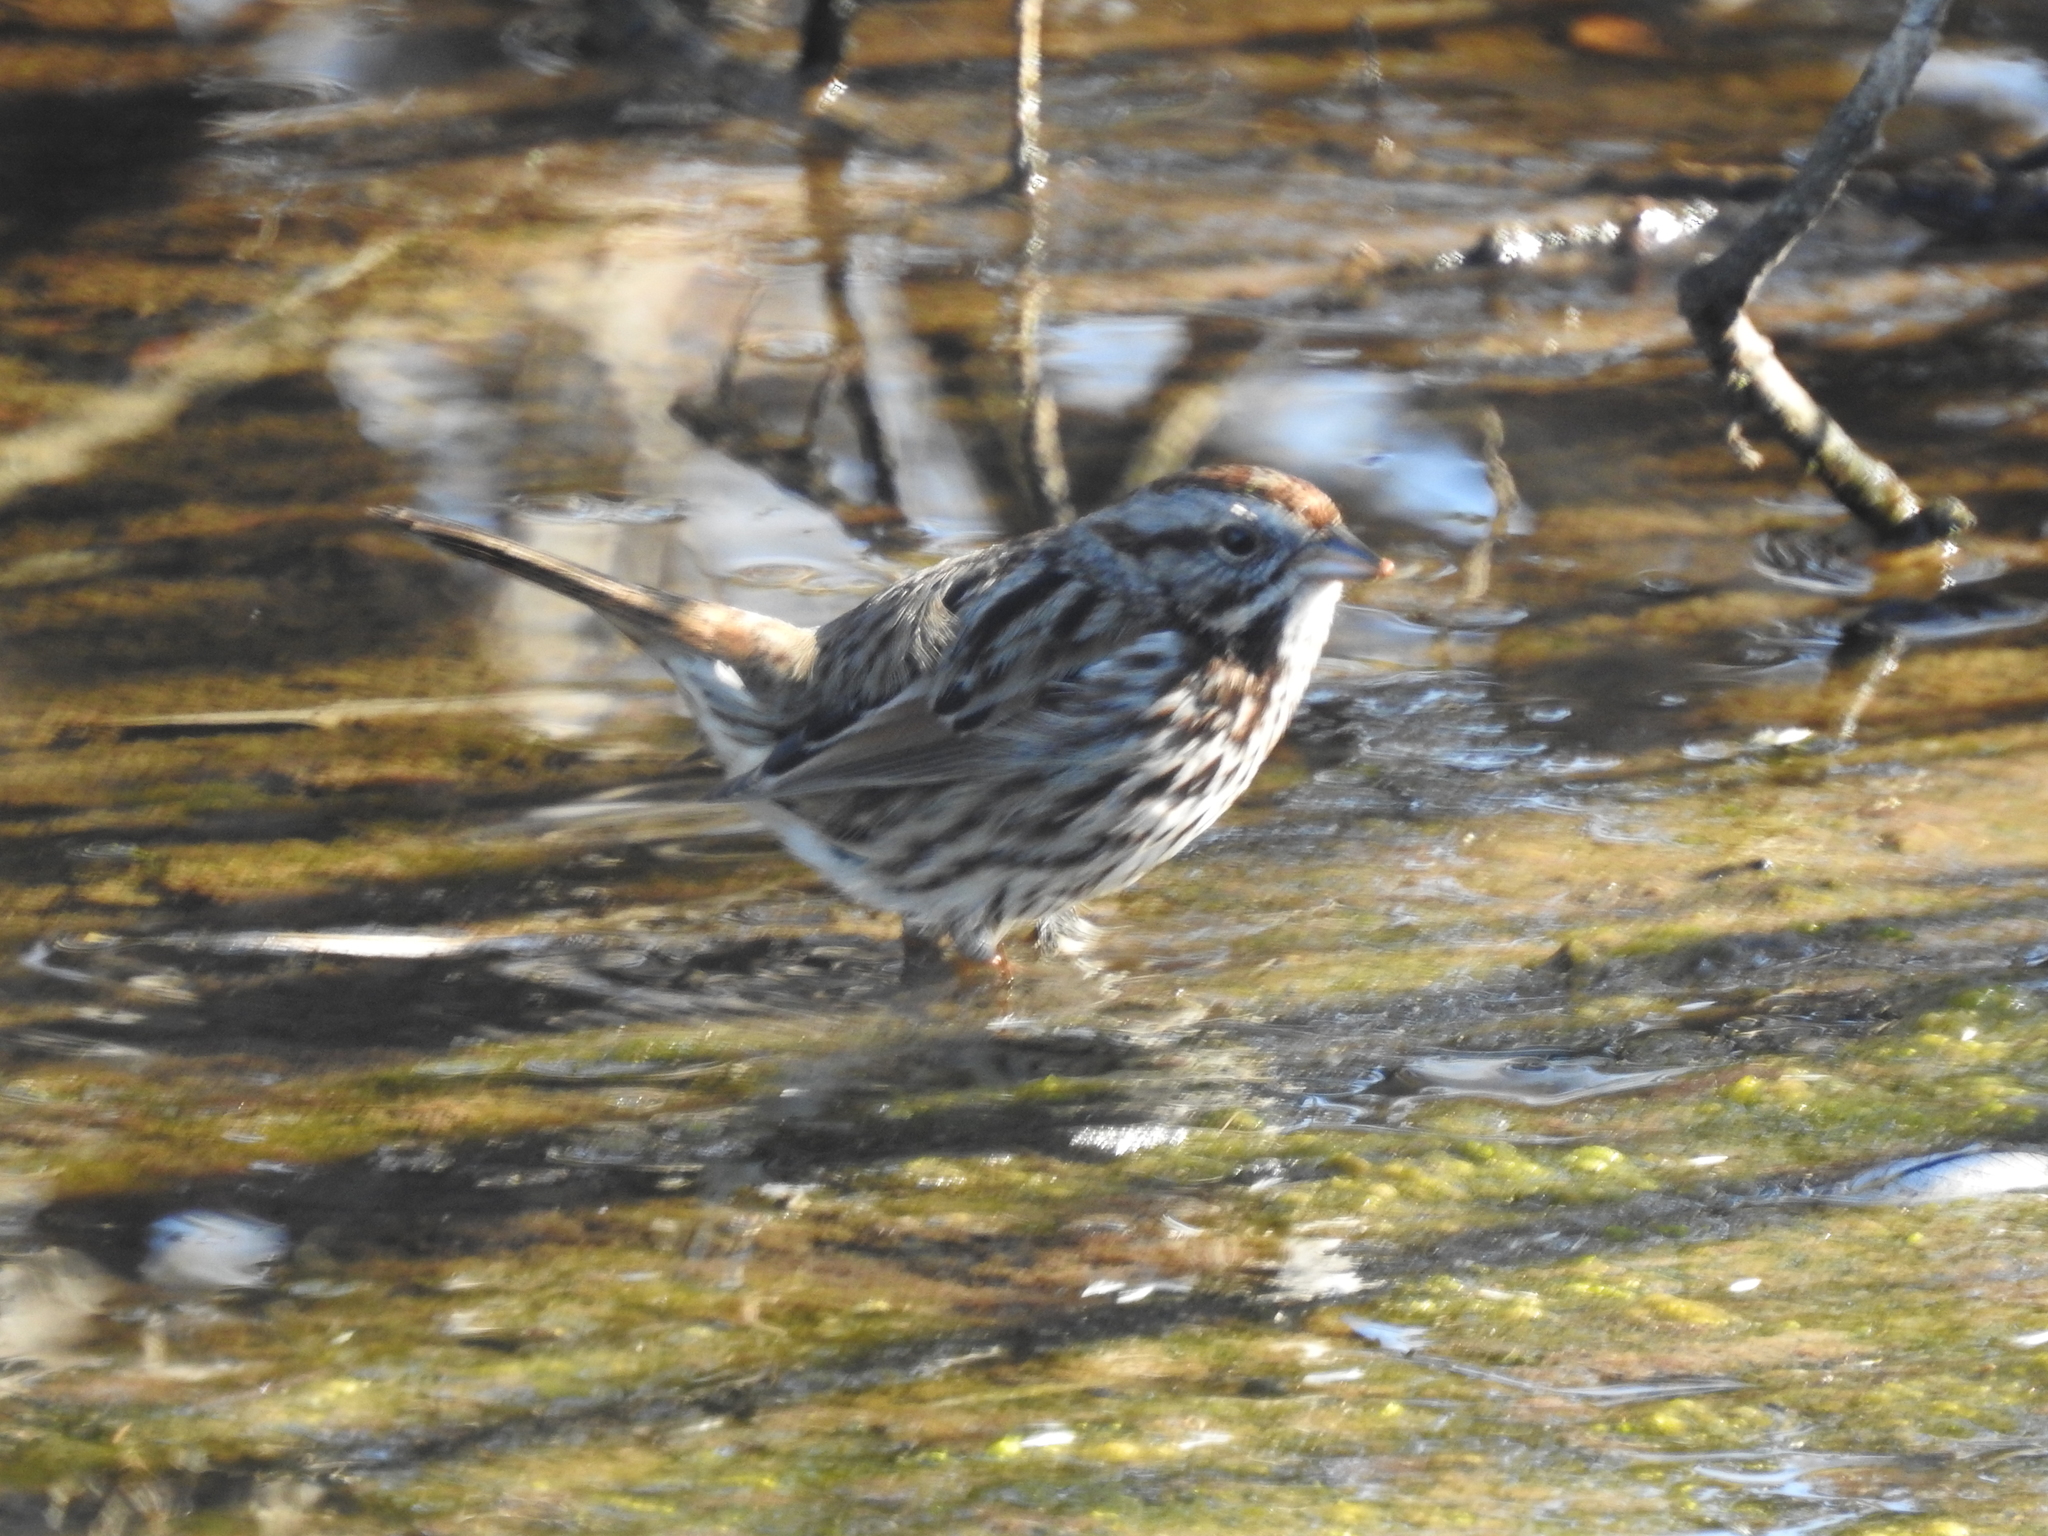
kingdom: Animalia
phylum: Chordata
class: Aves
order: Passeriformes
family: Passerellidae
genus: Melospiza
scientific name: Melospiza melodia
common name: Song sparrow
